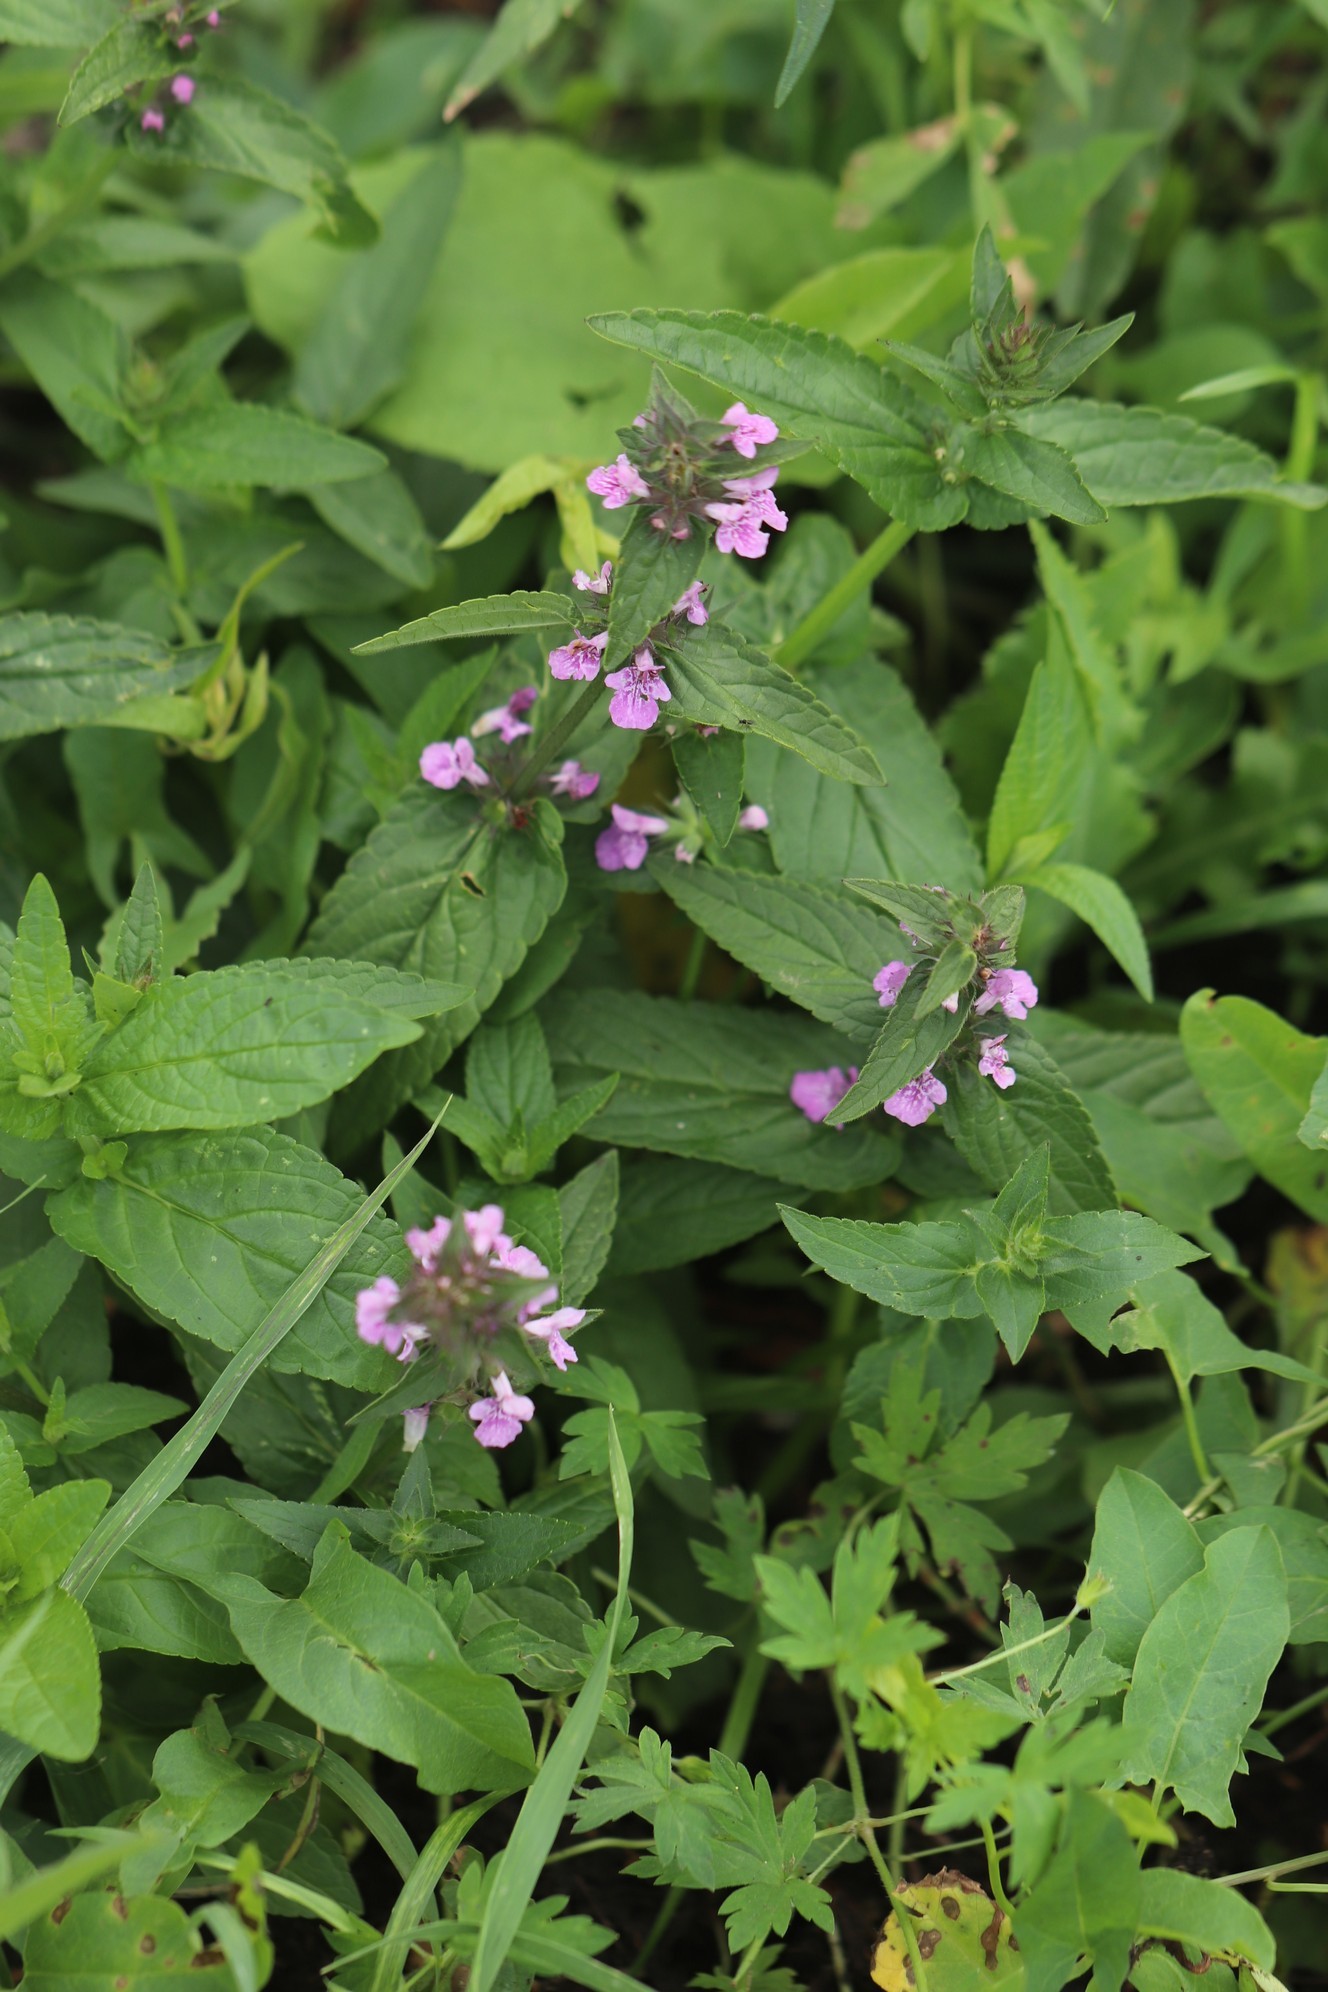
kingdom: Plantae
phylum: Tracheophyta
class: Magnoliopsida
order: Lamiales
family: Lamiaceae
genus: Stachys
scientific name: Stachys palustris
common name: Marsh woundwort
